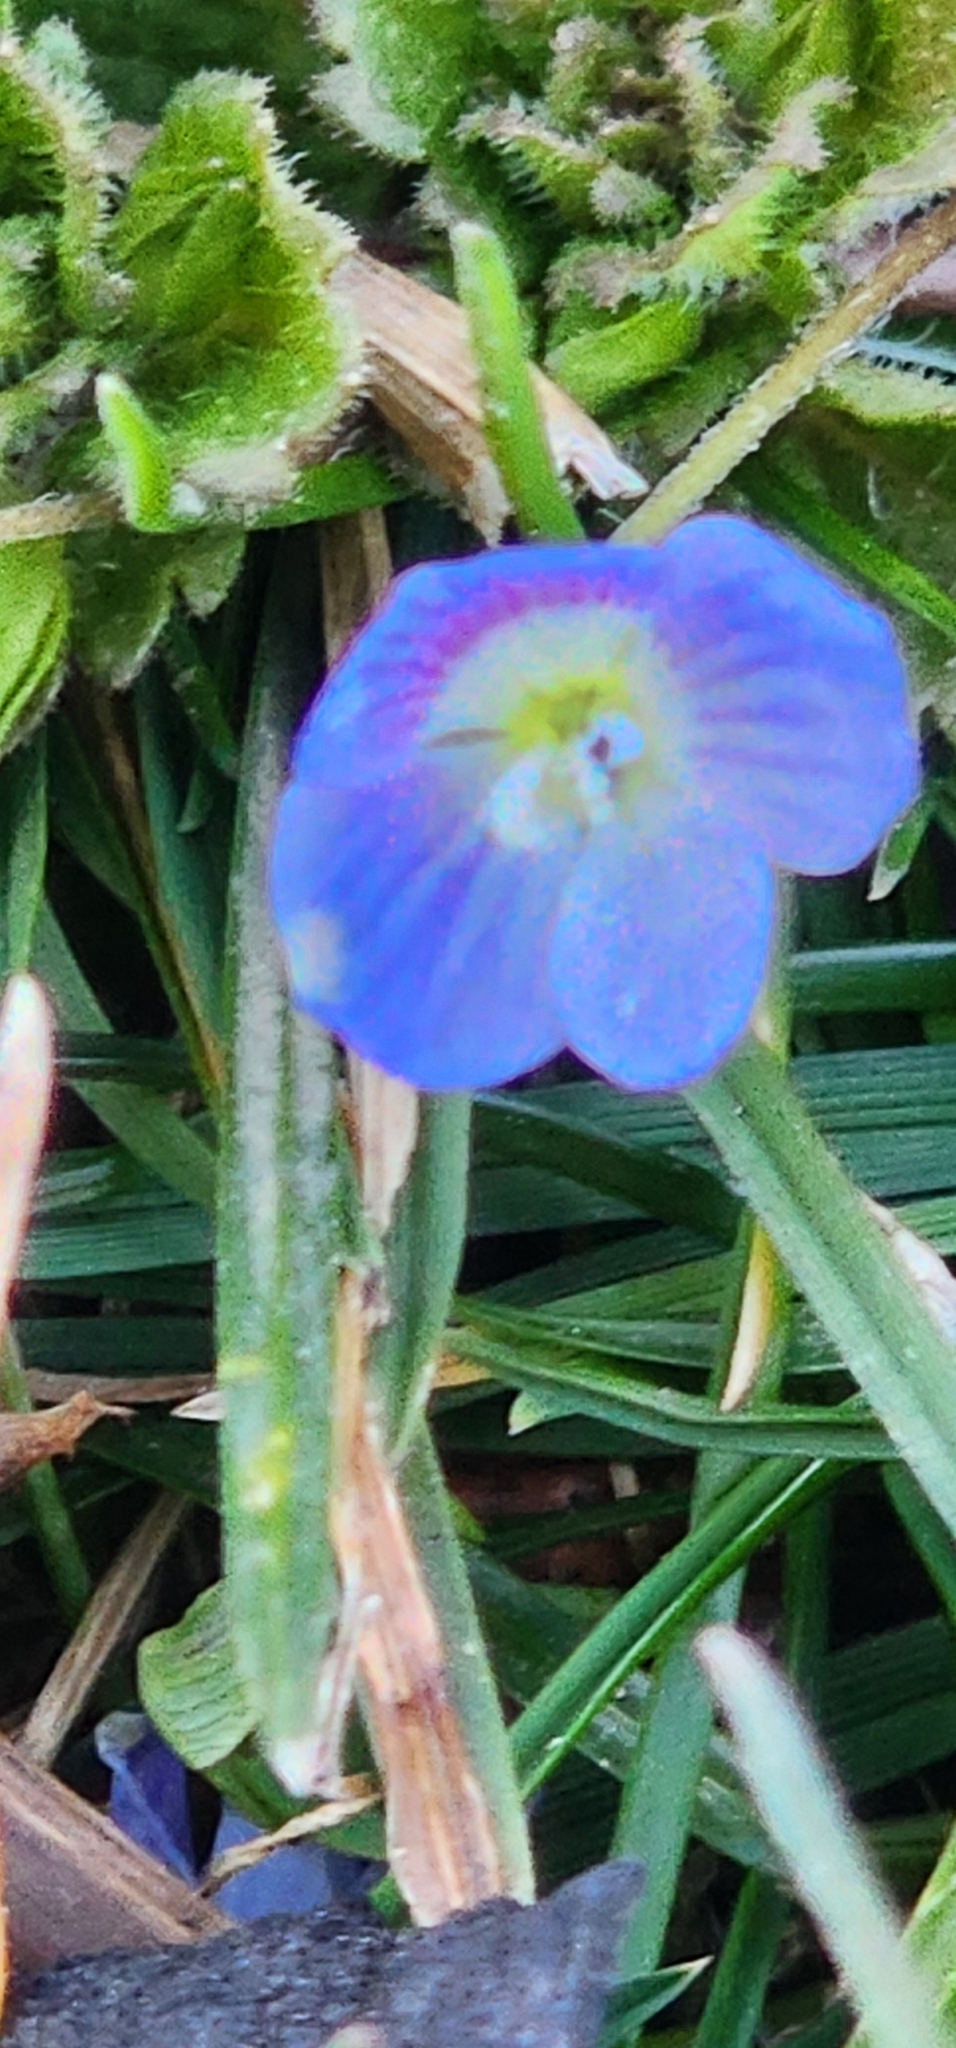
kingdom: Plantae
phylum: Tracheophyta
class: Magnoliopsida
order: Lamiales
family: Plantaginaceae
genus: Veronica
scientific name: Veronica persica
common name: Common field-speedwell
